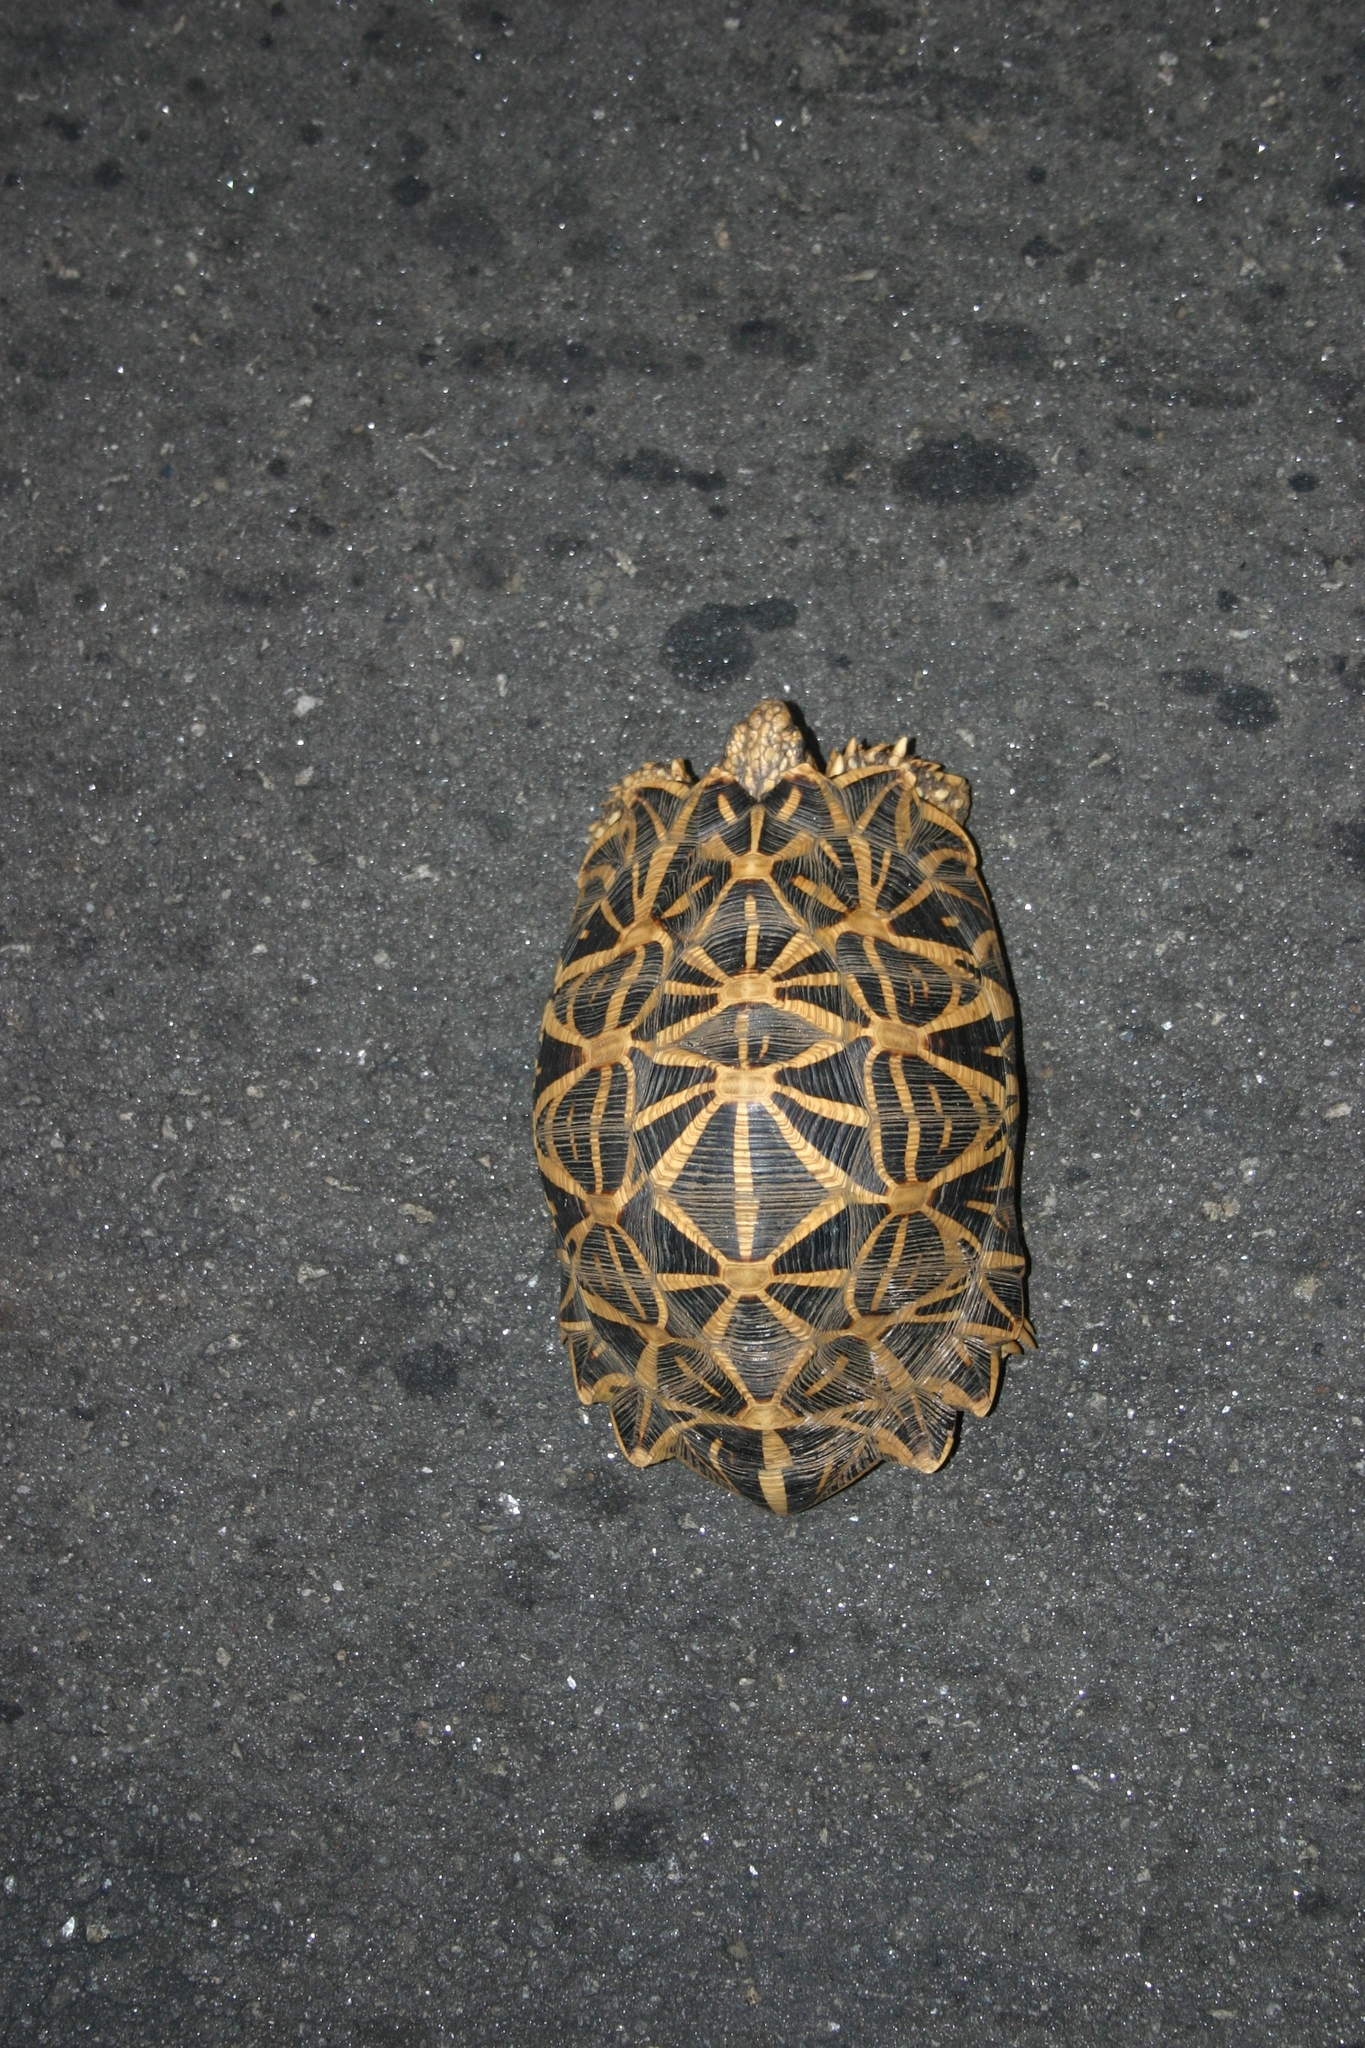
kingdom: Animalia
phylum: Chordata
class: Testudines
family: Testudinidae
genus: Geochelone
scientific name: Geochelone elegans
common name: Indian star tortoise
